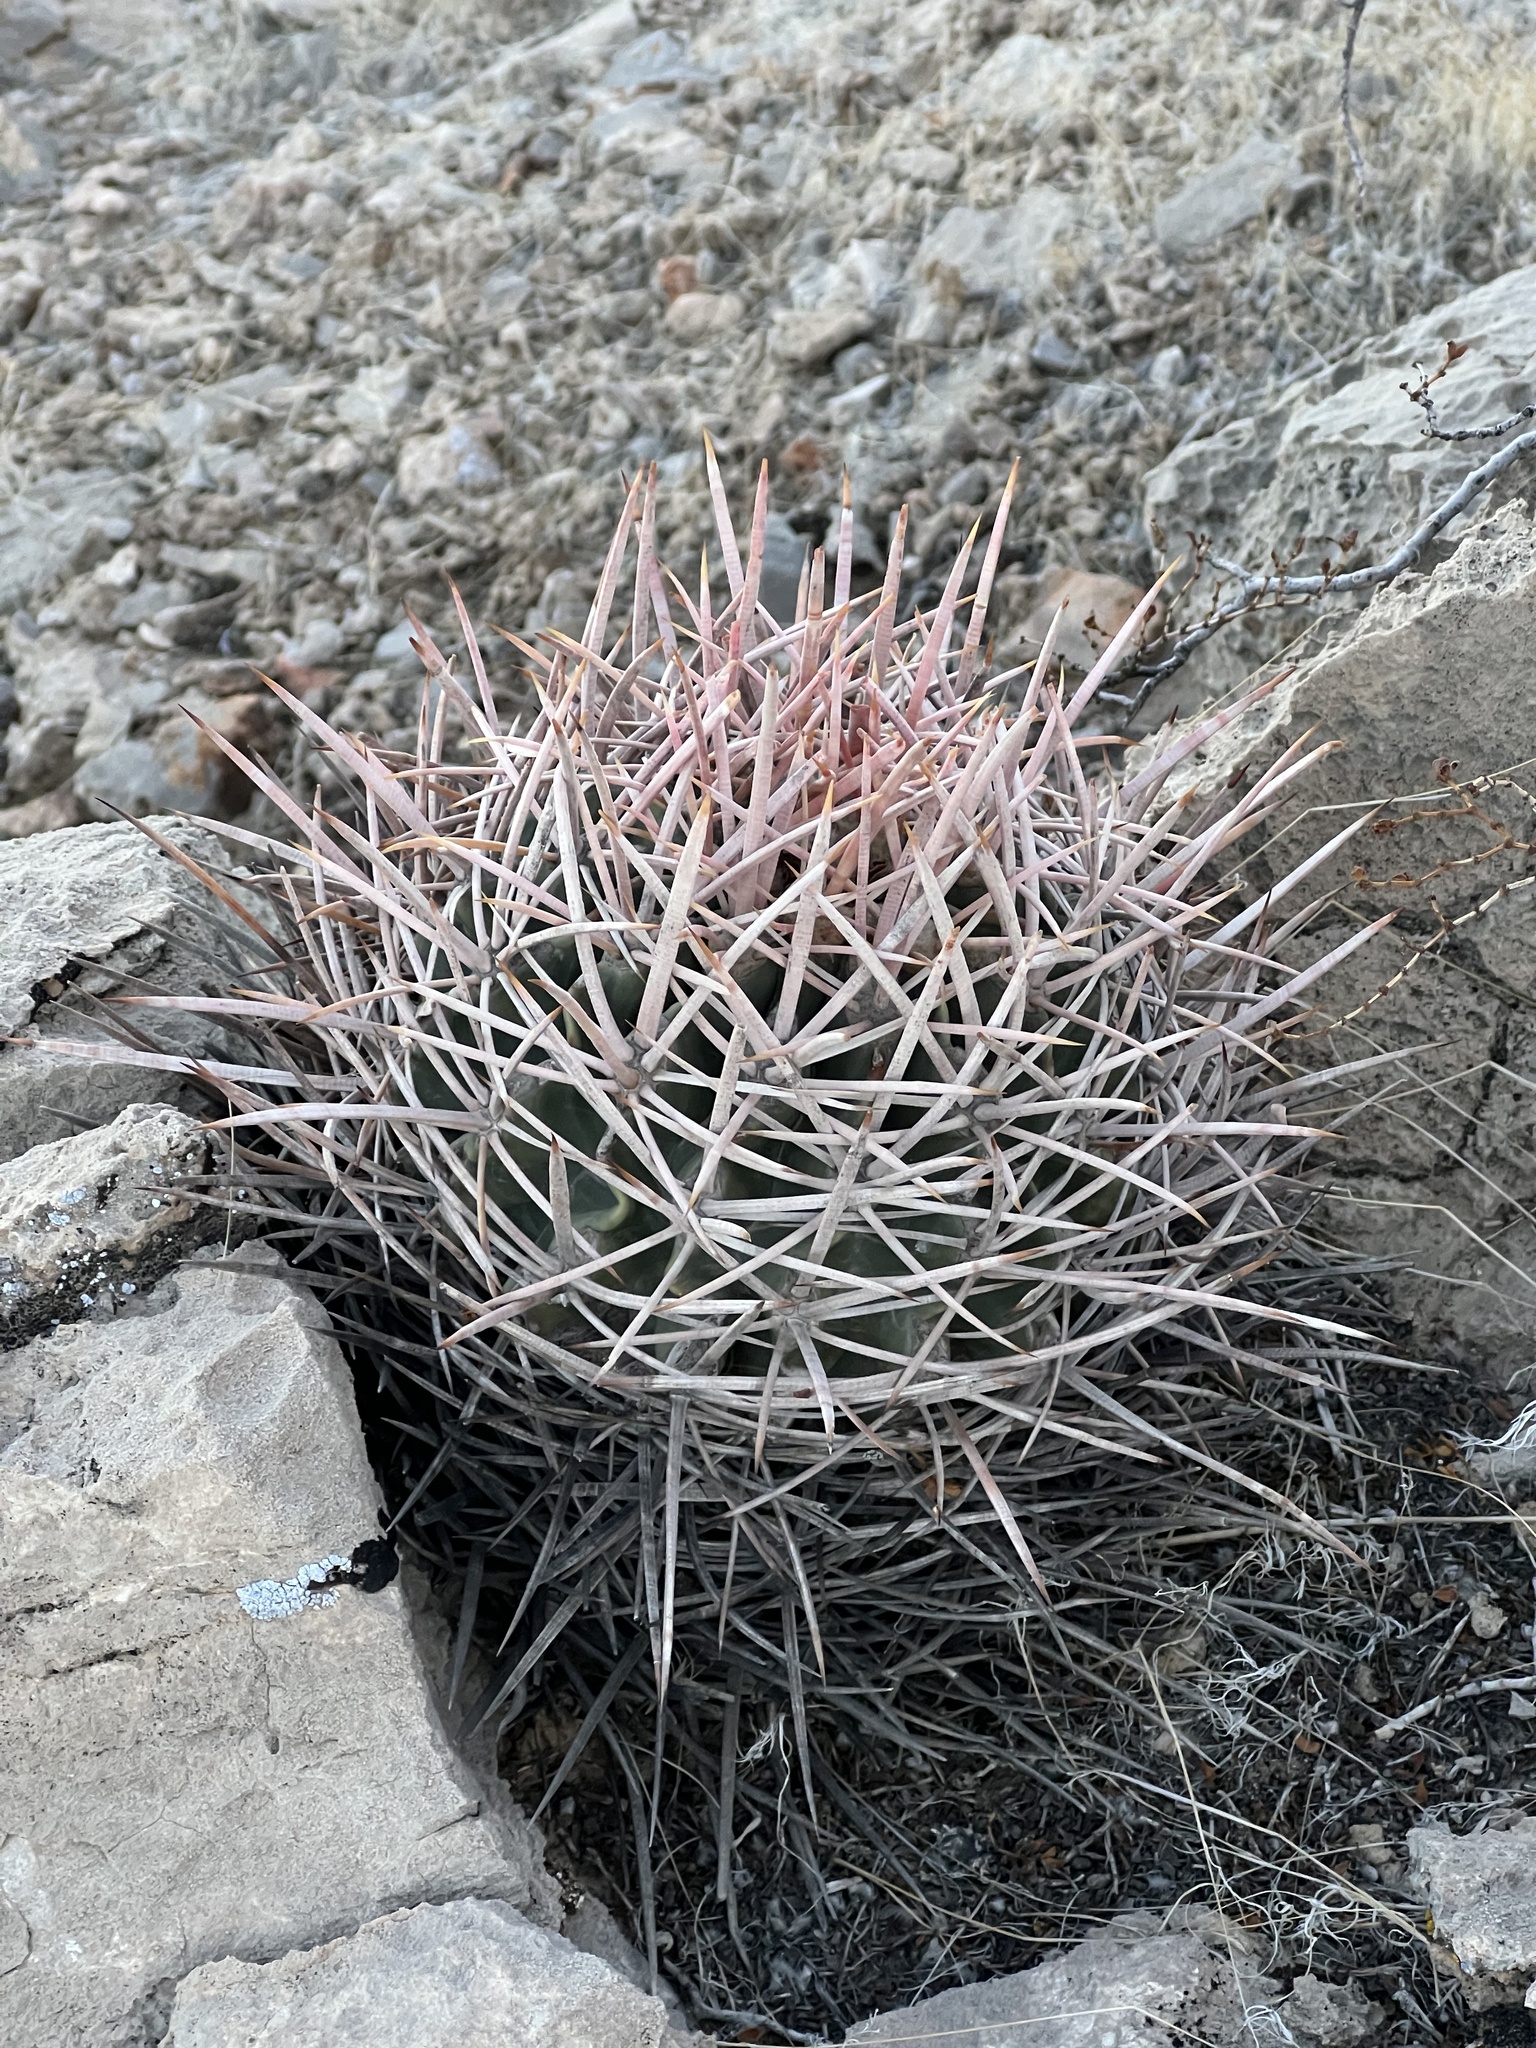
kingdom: Plantae
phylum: Tracheophyta
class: Magnoliopsida
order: Caryophyllales
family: Cactaceae
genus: Echinocactus
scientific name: Echinocactus polycephalus
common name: Cottontop cactus
